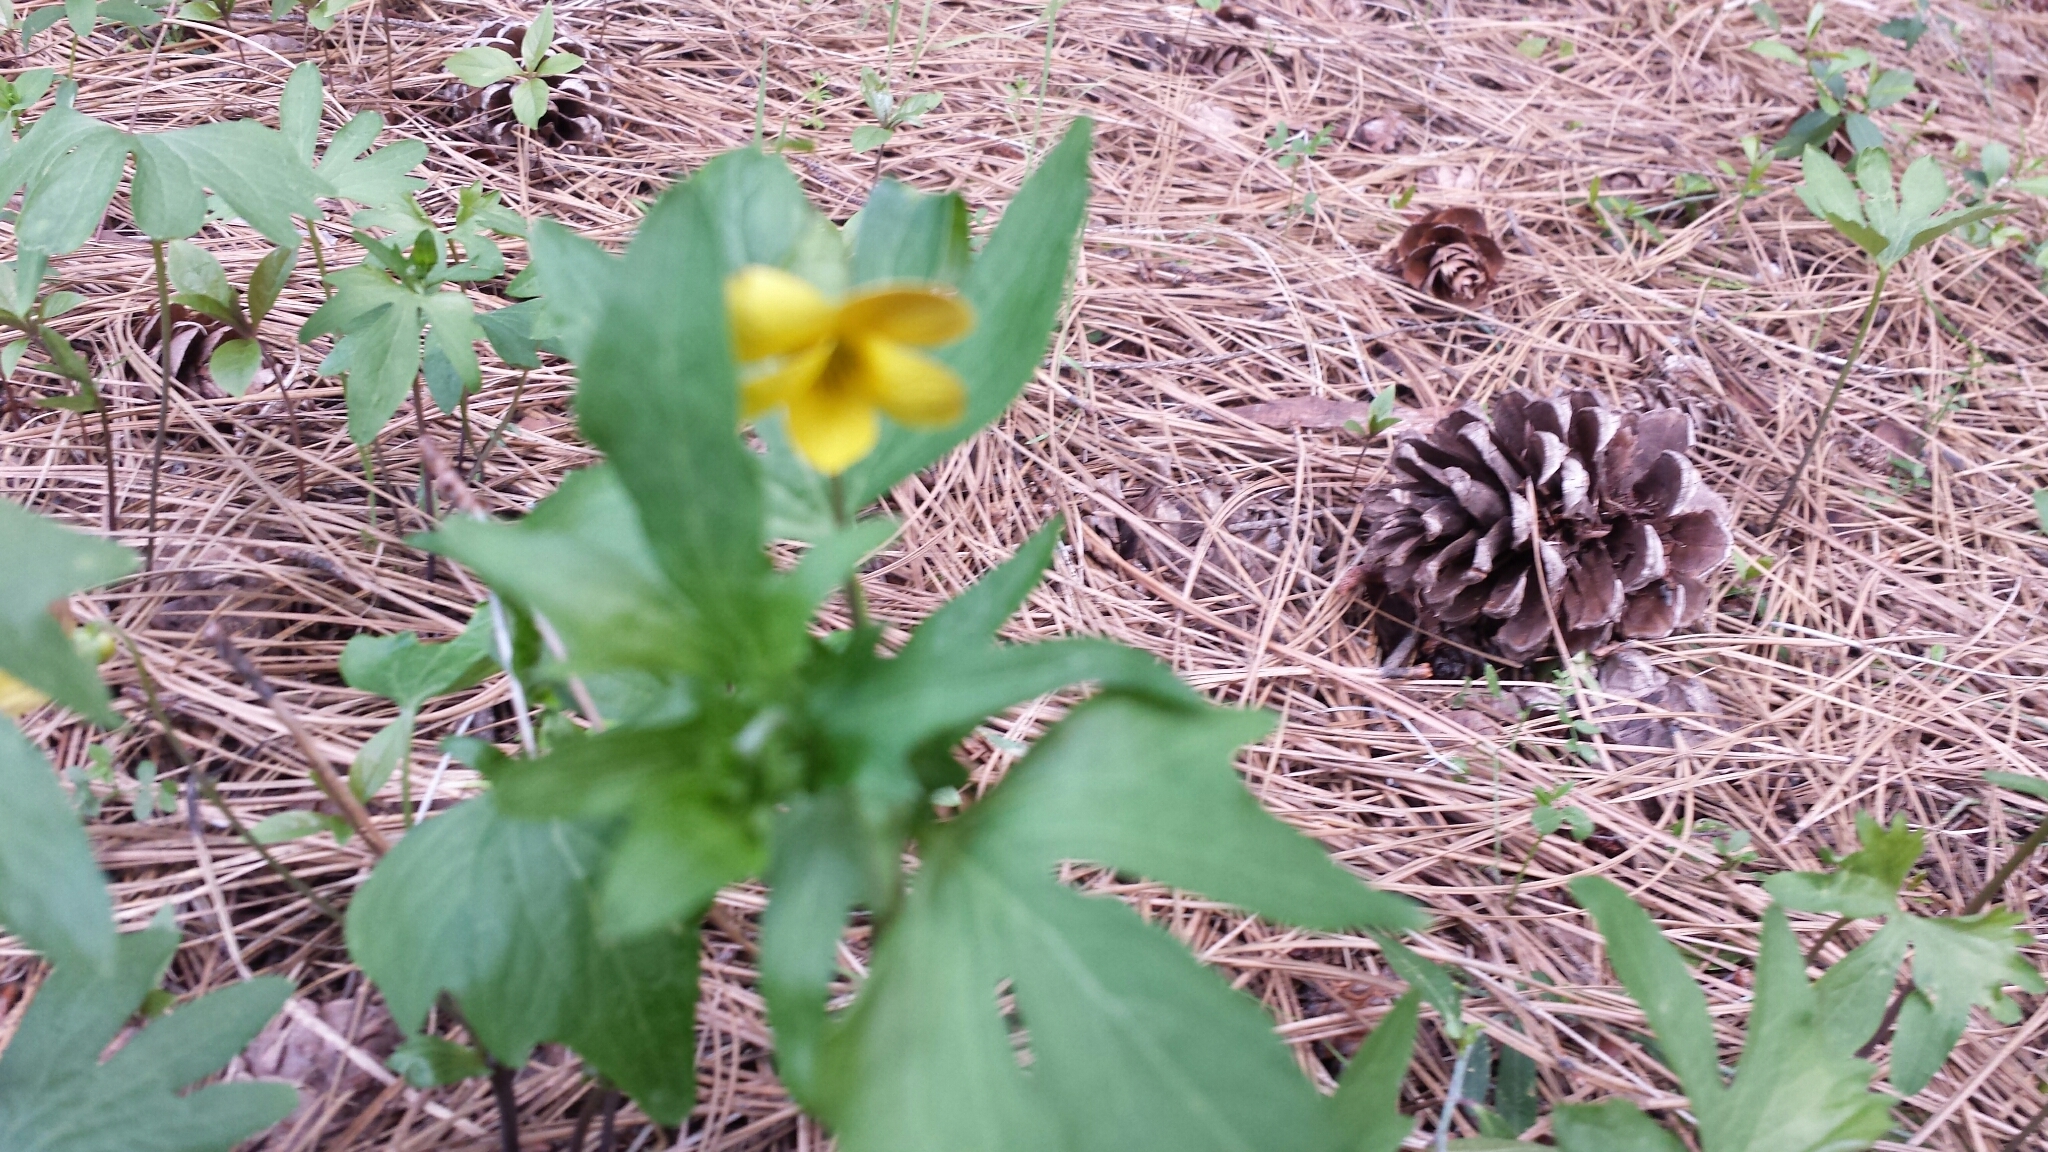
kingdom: Plantae
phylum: Tracheophyta
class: Magnoliopsida
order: Malpighiales
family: Violaceae
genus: Viola
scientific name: Viola lobata
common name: Pine violet
